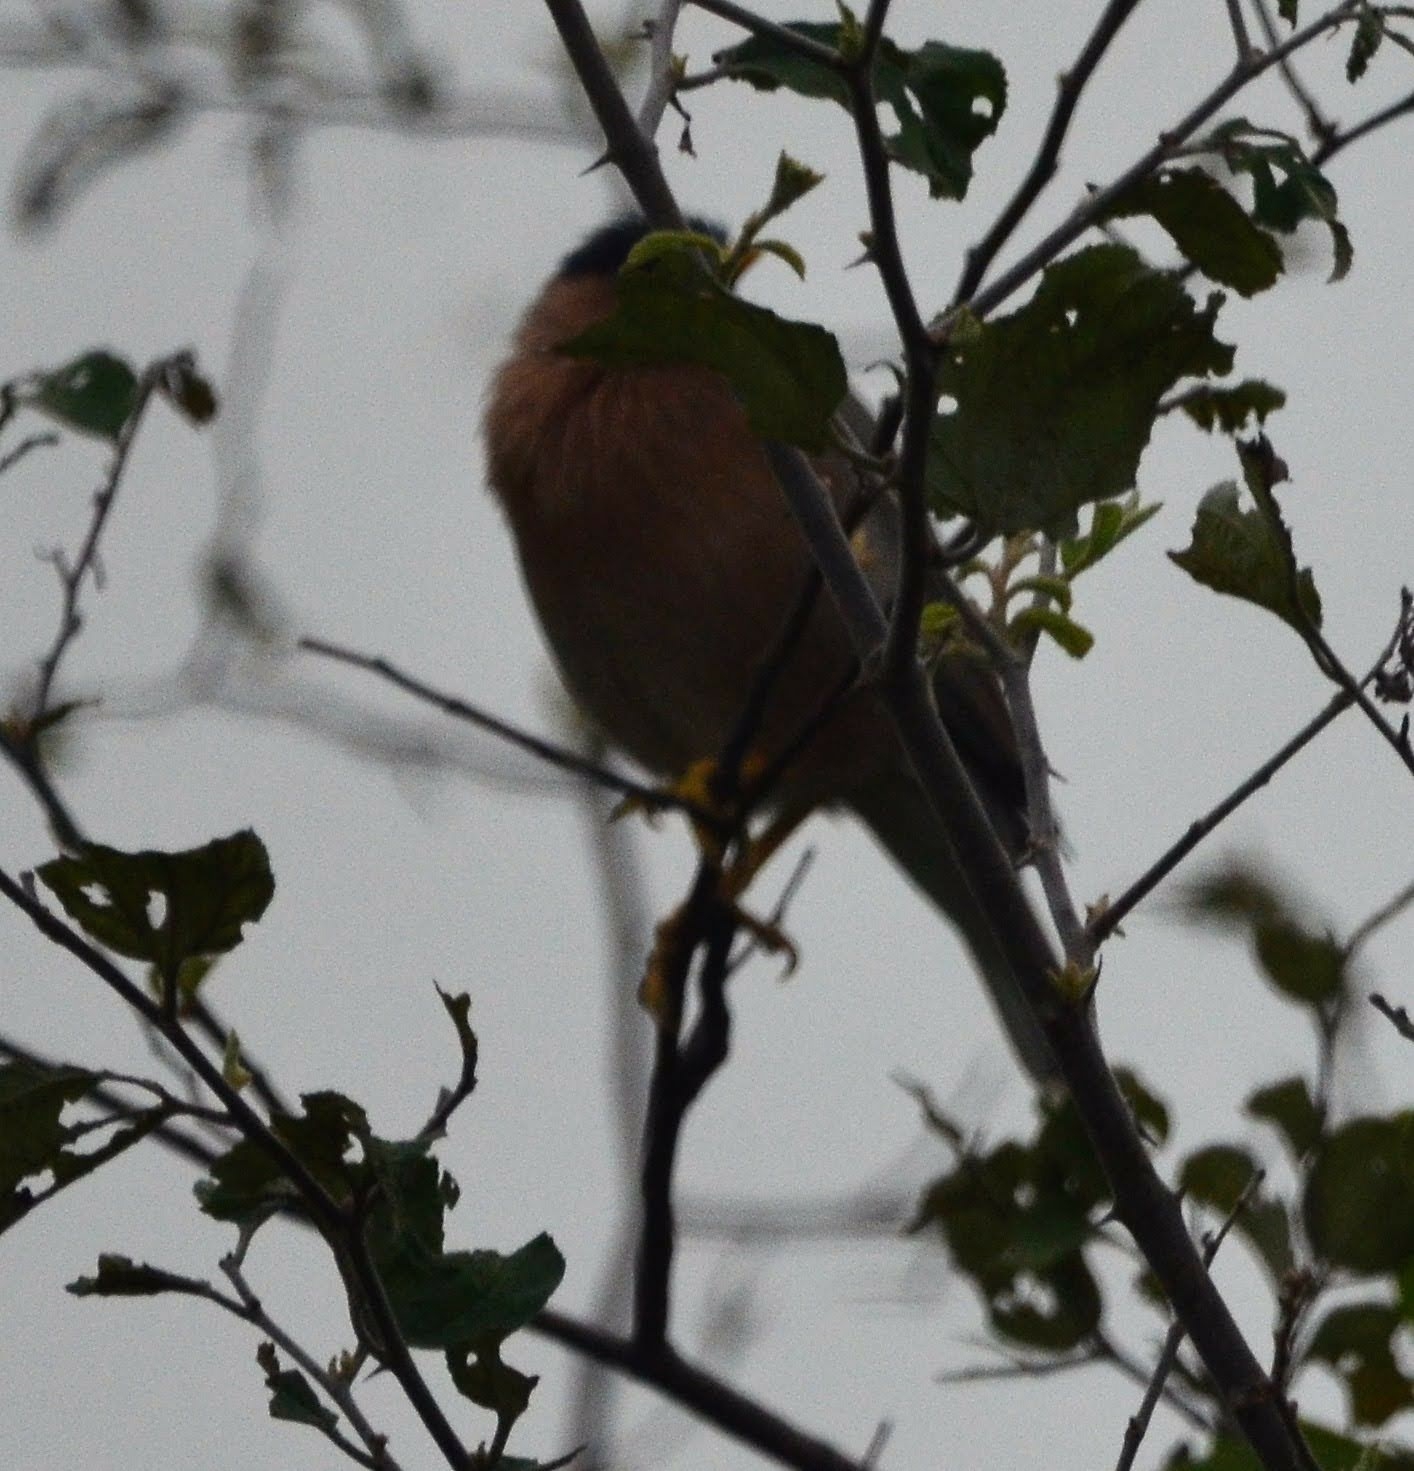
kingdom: Animalia
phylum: Chordata
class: Aves
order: Passeriformes
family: Sturnidae
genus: Sturnia
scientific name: Sturnia pagodarum
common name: Brahminy starling
